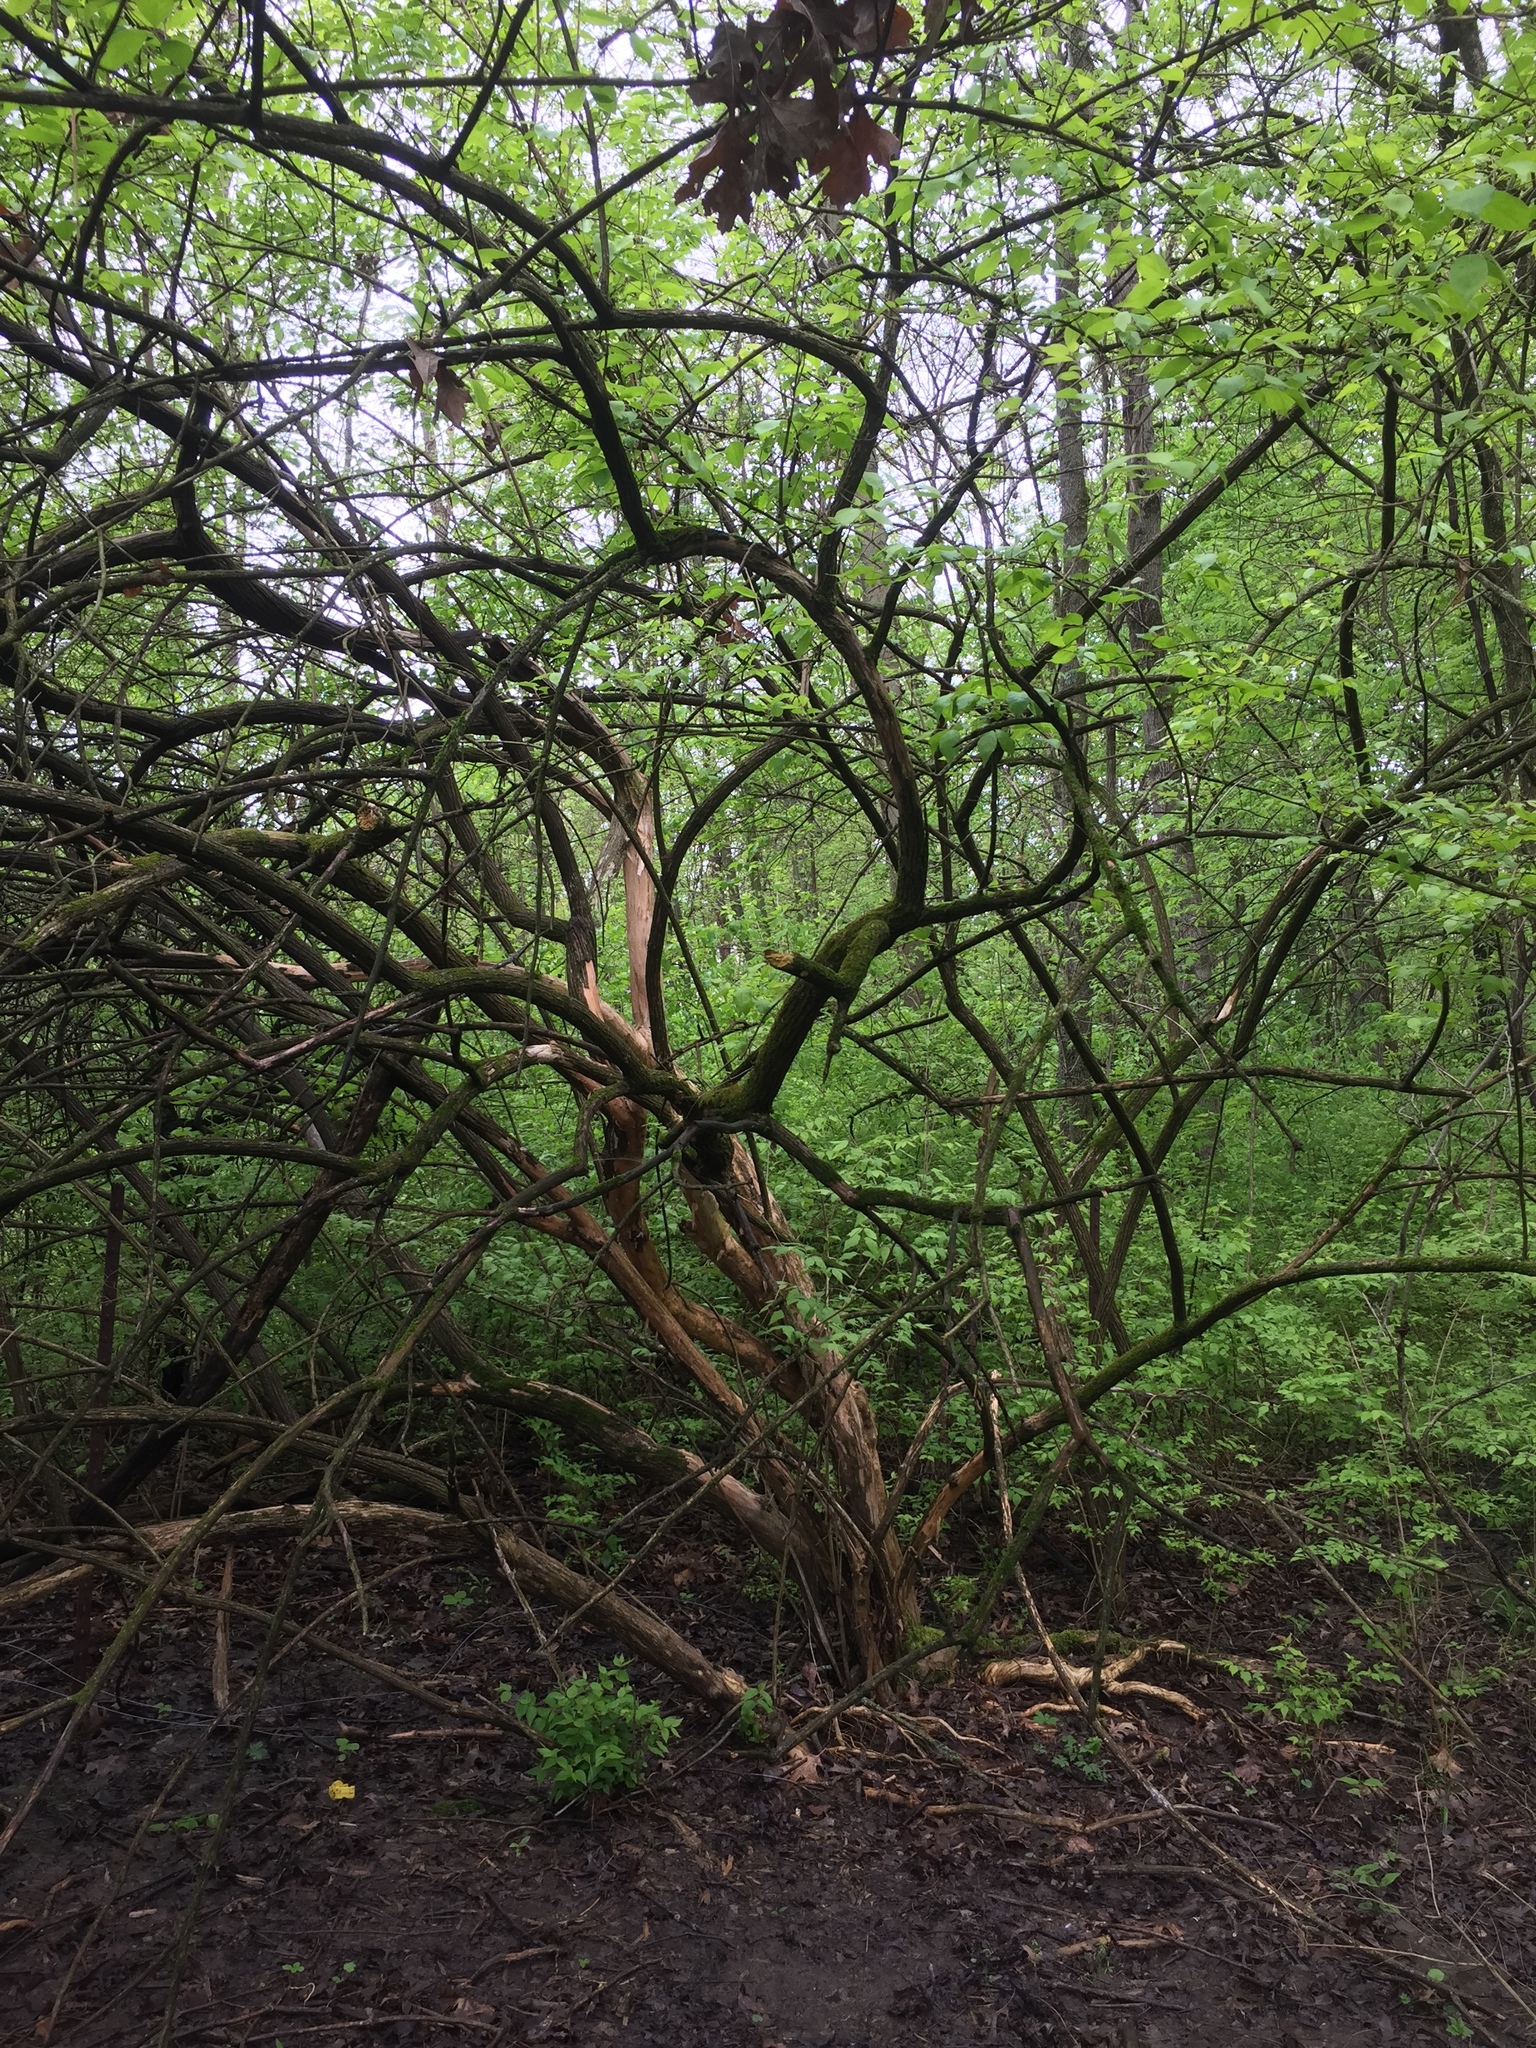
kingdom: Plantae
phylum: Tracheophyta
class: Magnoliopsida
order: Dipsacales
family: Caprifoliaceae
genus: Lonicera
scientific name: Lonicera maackii
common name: Amur honeysuckle
